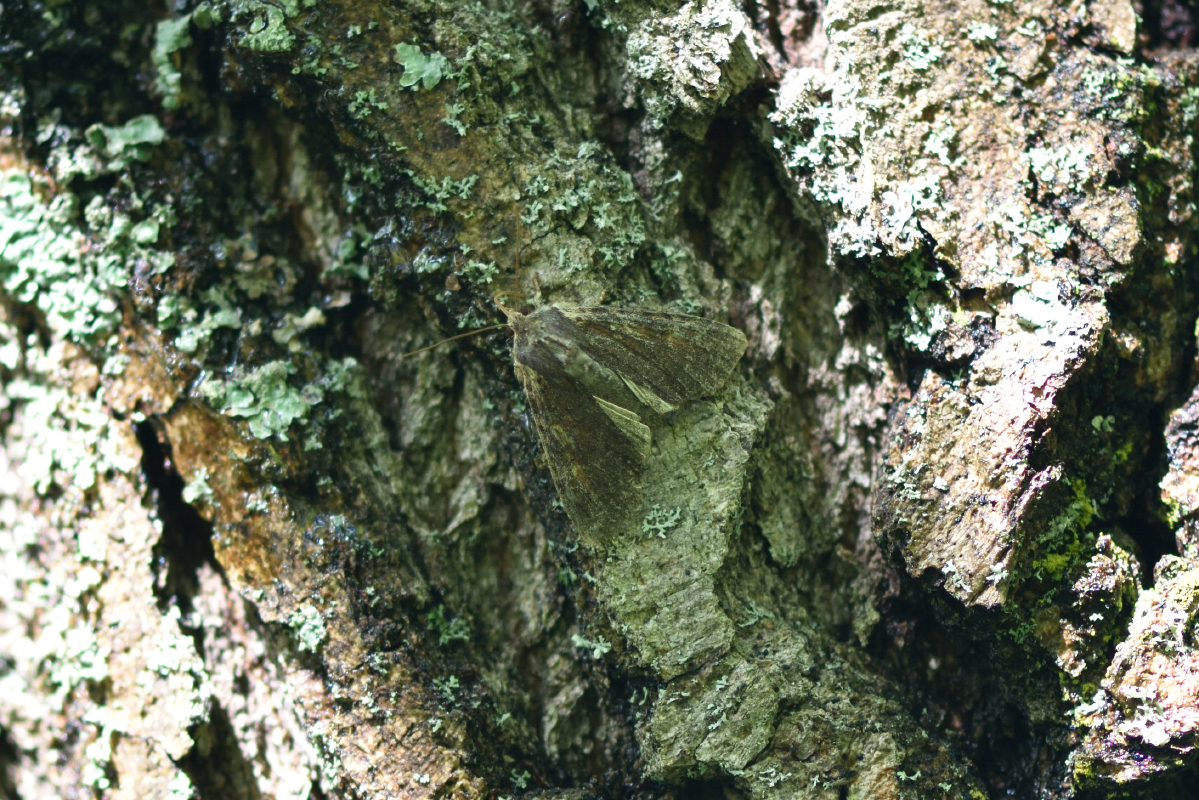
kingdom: Animalia
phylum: Arthropoda
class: Insecta
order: Lepidoptera
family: Noctuidae
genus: Apamea
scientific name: Apamea crenata
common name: Clouded-bordered brindle
